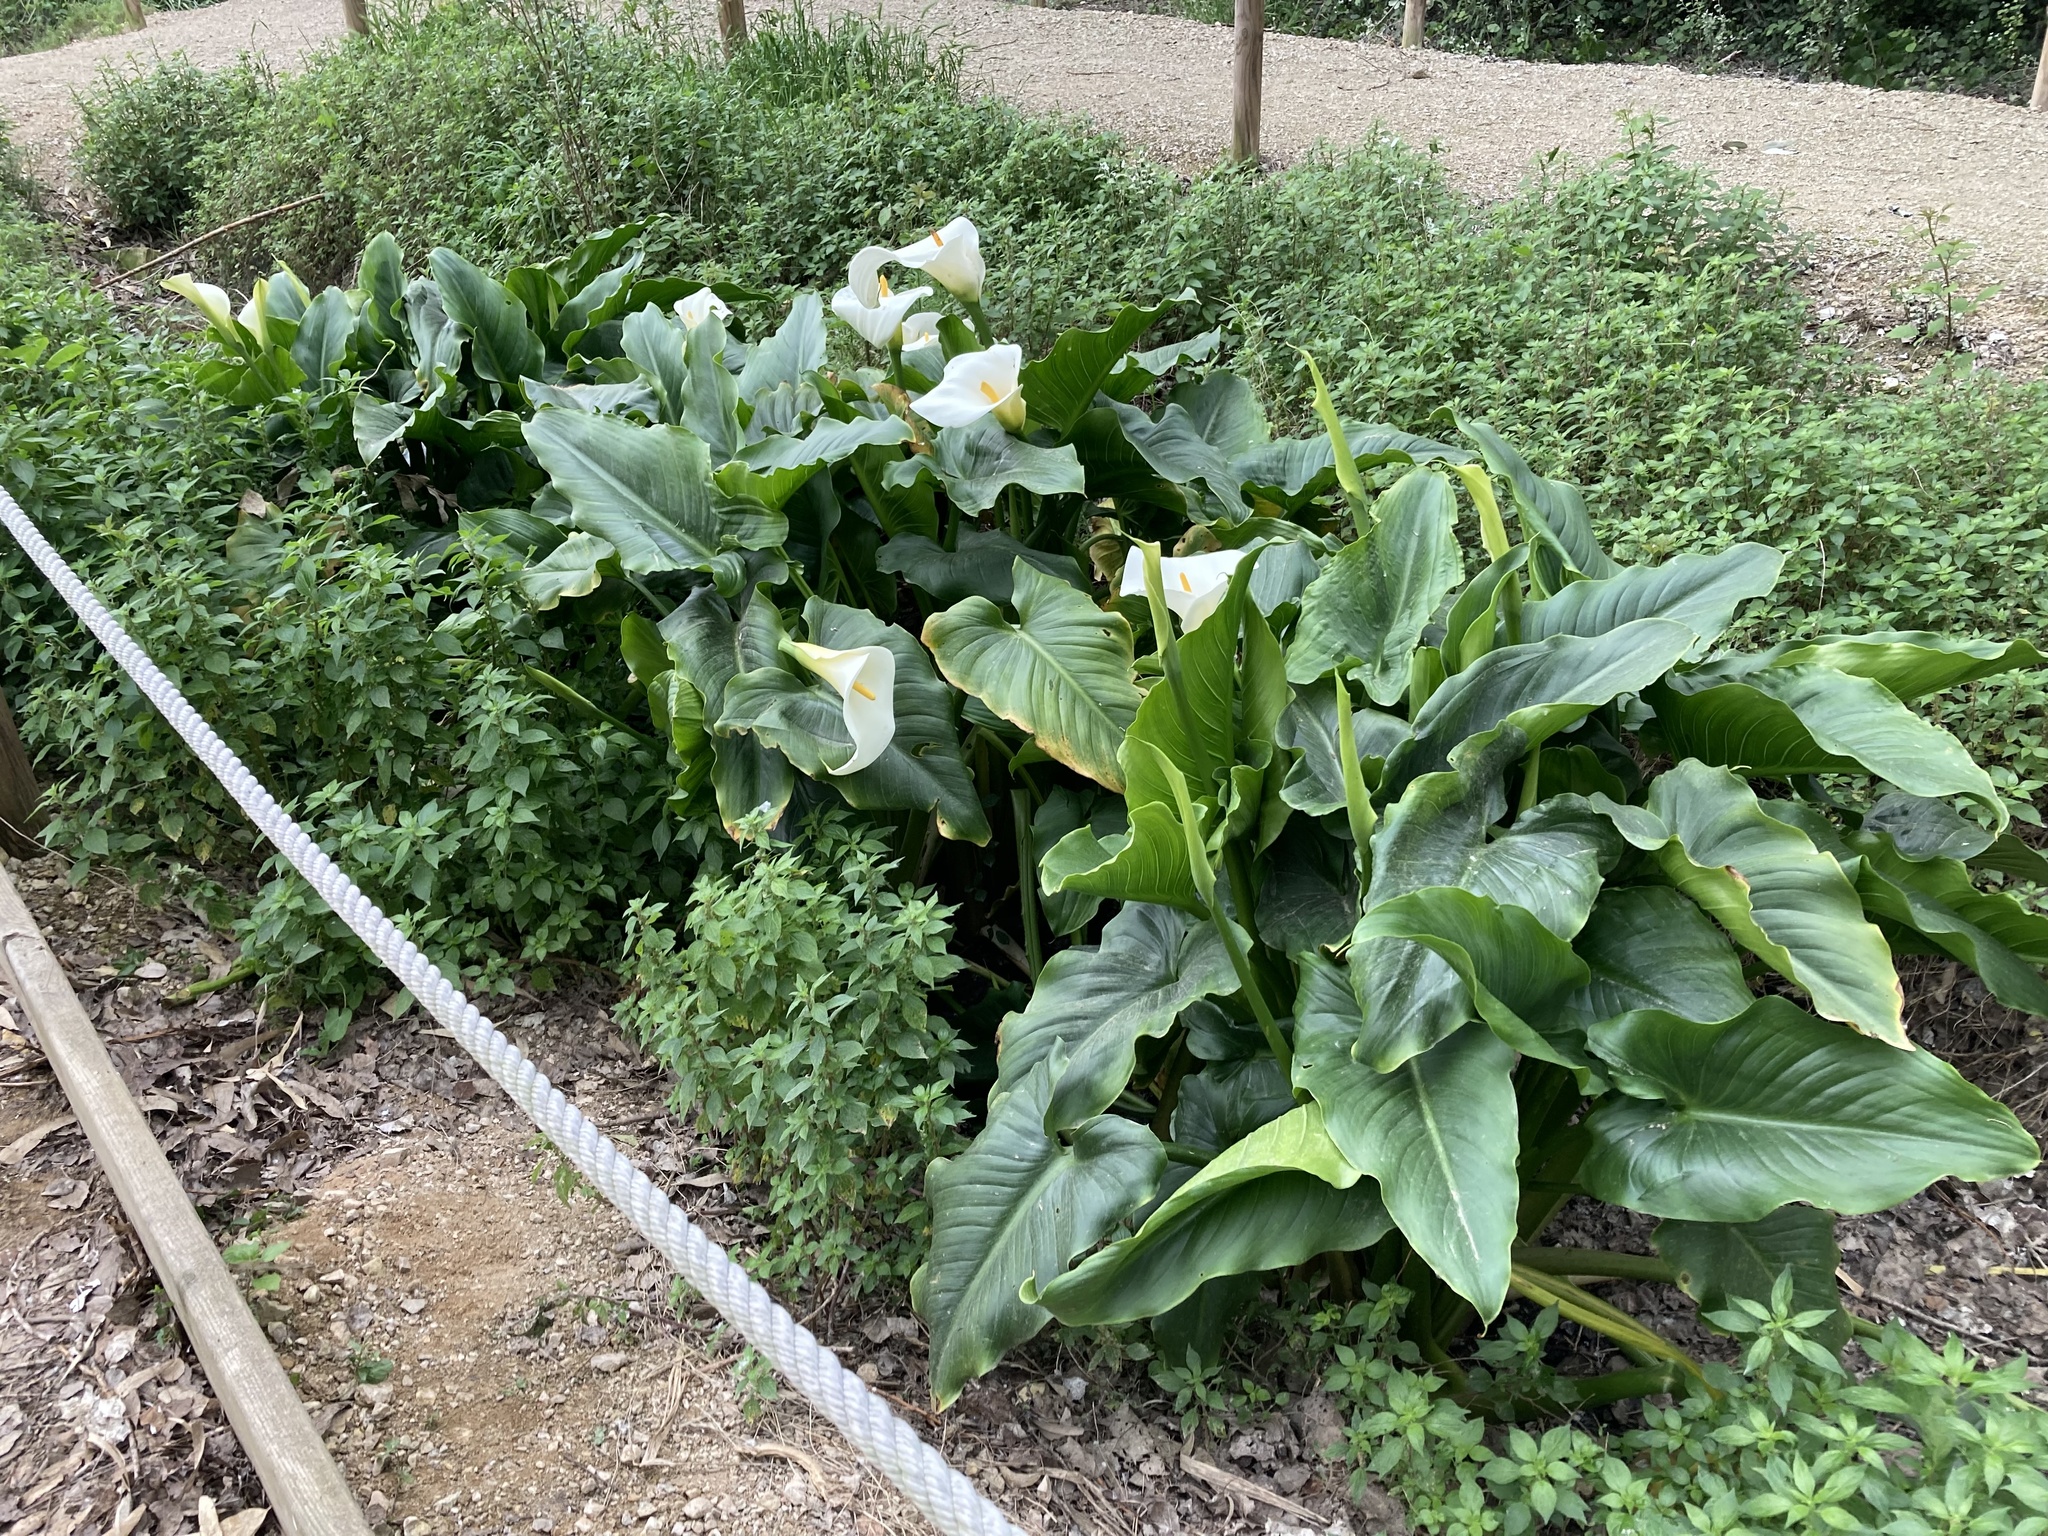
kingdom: Plantae
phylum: Tracheophyta
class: Liliopsida
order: Alismatales
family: Araceae
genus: Zantedeschia
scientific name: Zantedeschia aethiopica
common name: Altar-lily
